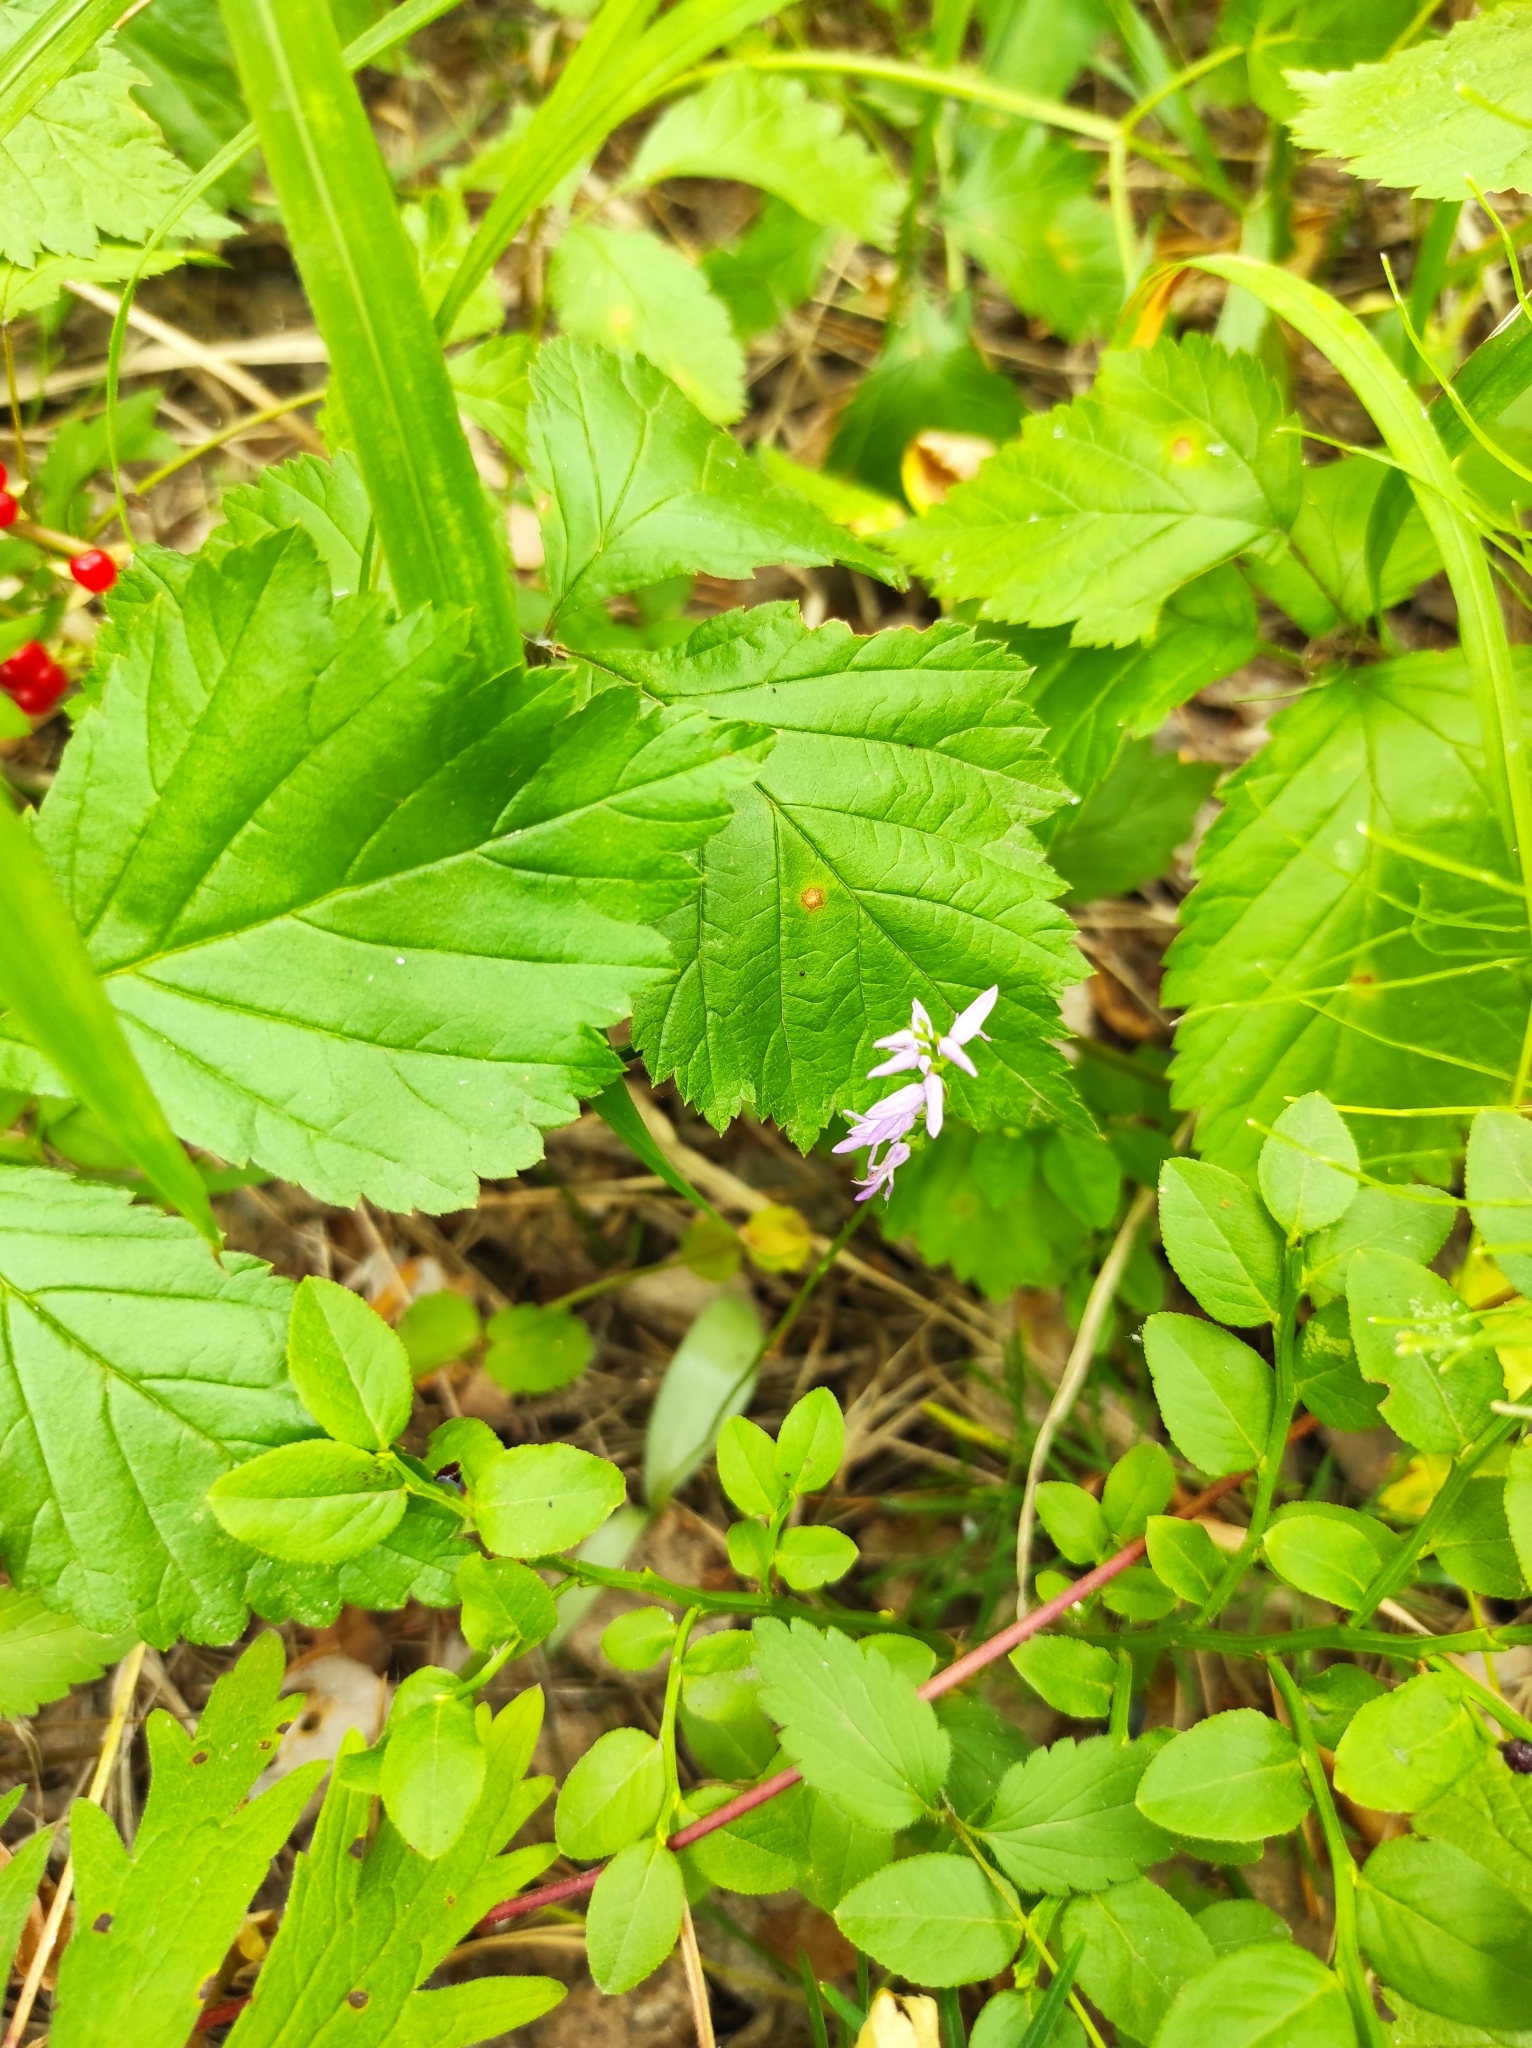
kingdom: Plantae
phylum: Tracheophyta
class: Liliopsida
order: Asparagales
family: Orchidaceae
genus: Hemipilia
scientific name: Hemipilia cucullata
